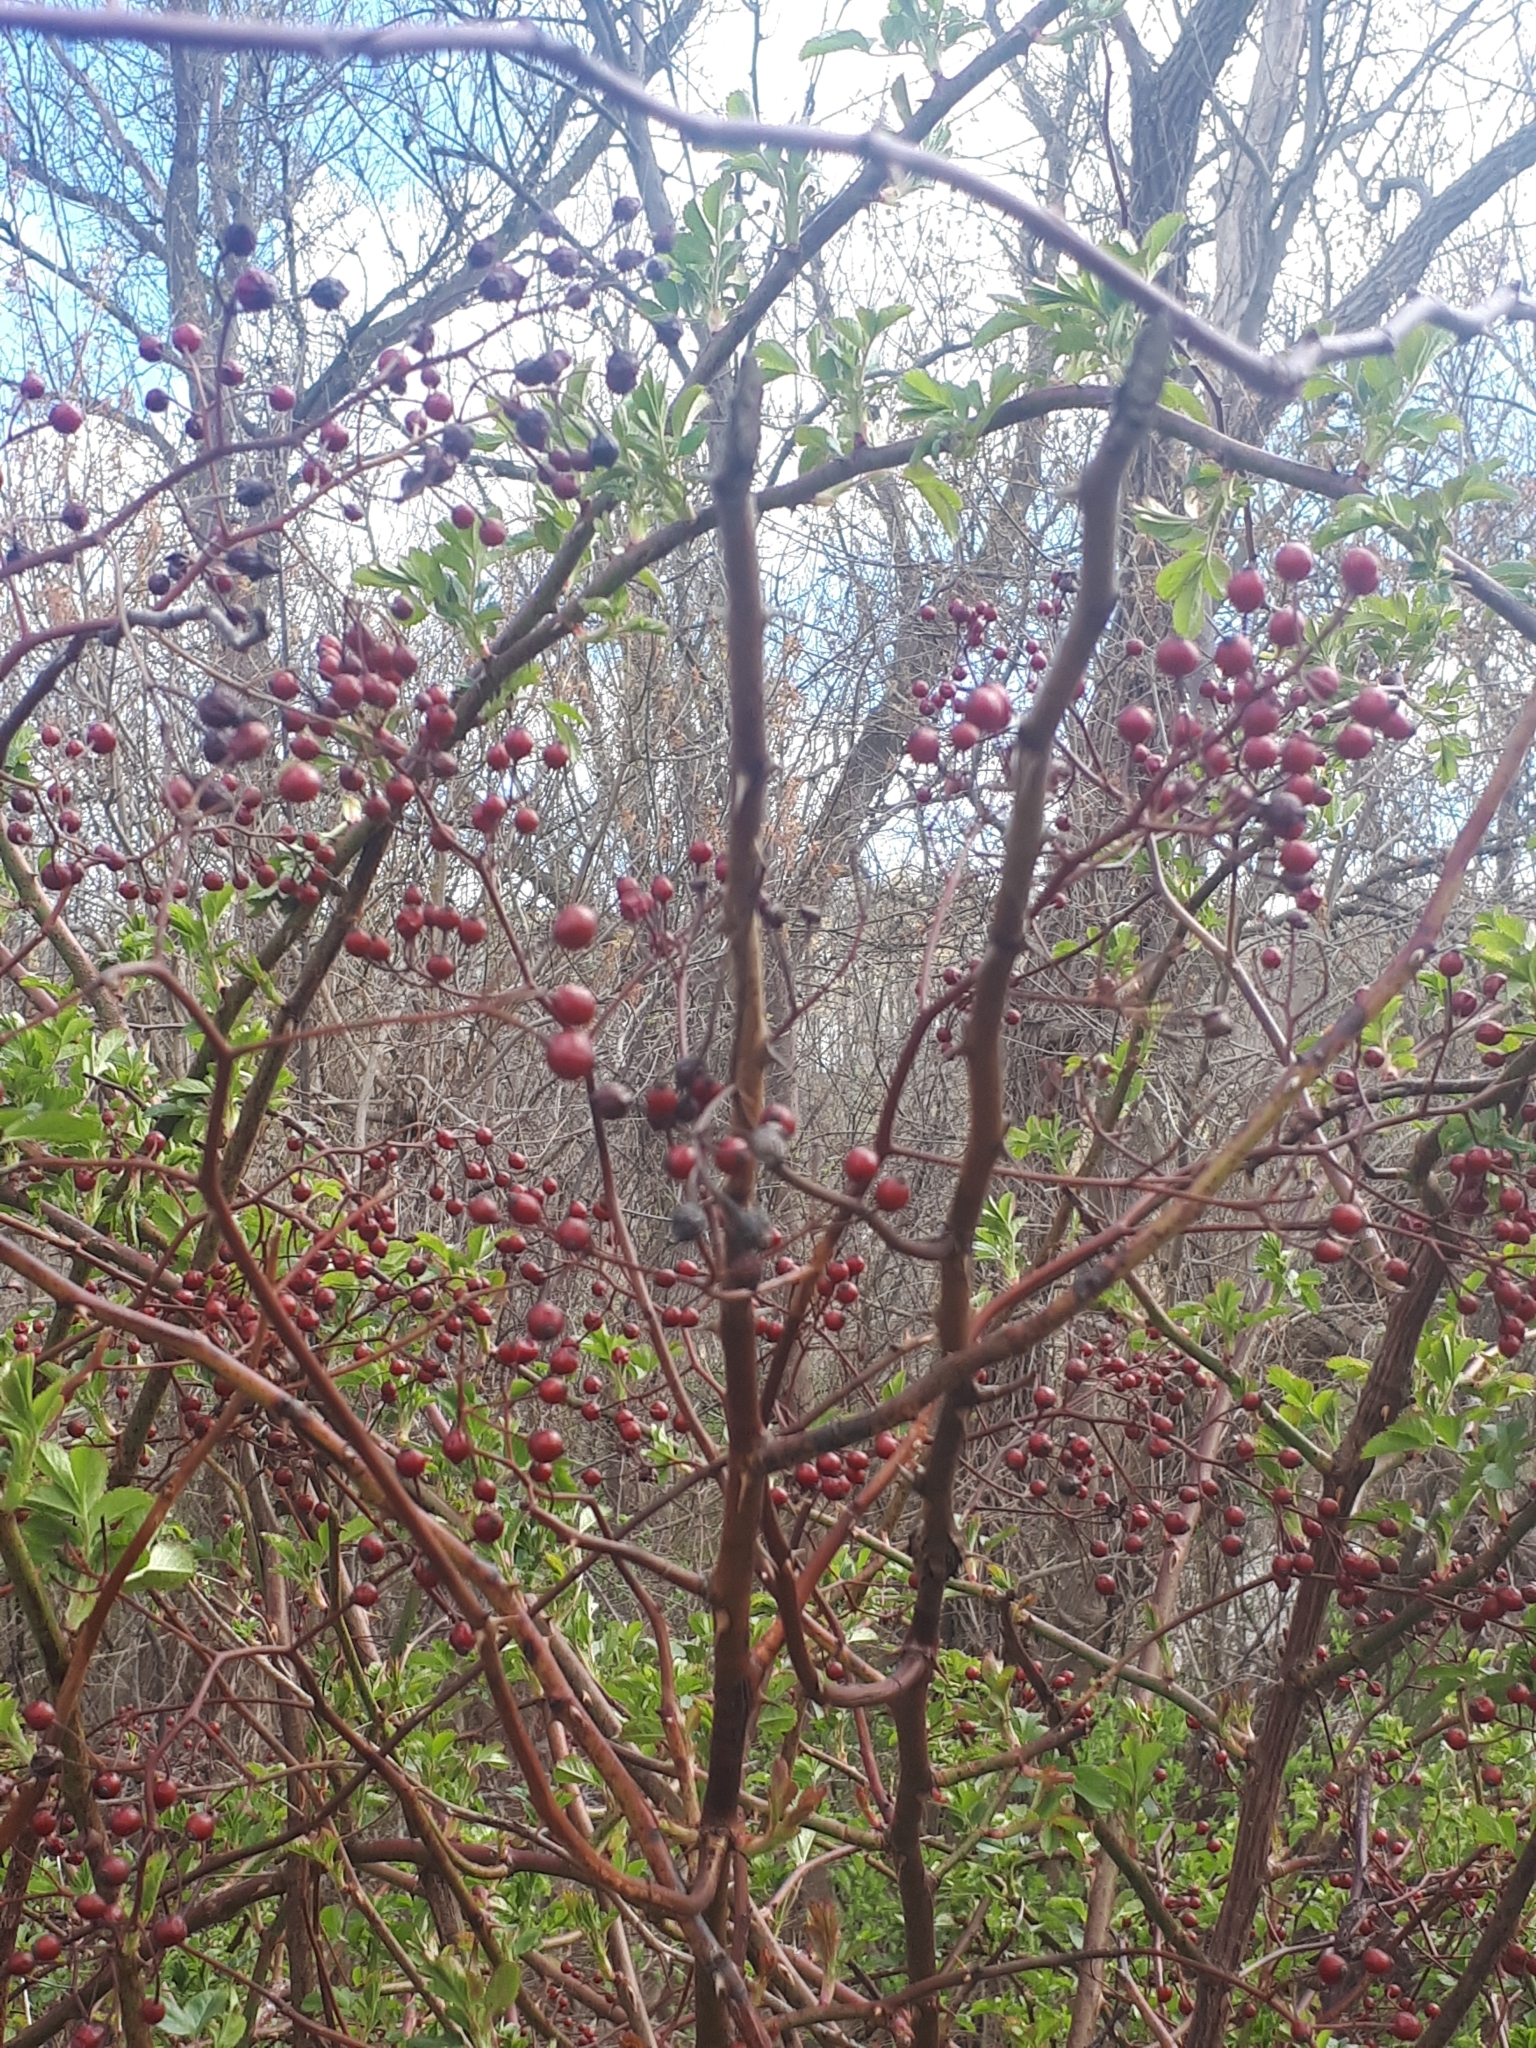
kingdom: Plantae
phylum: Tracheophyta
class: Magnoliopsida
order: Rosales
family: Rosaceae
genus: Rosa
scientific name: Rosa multiflora
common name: Multiflora rose
